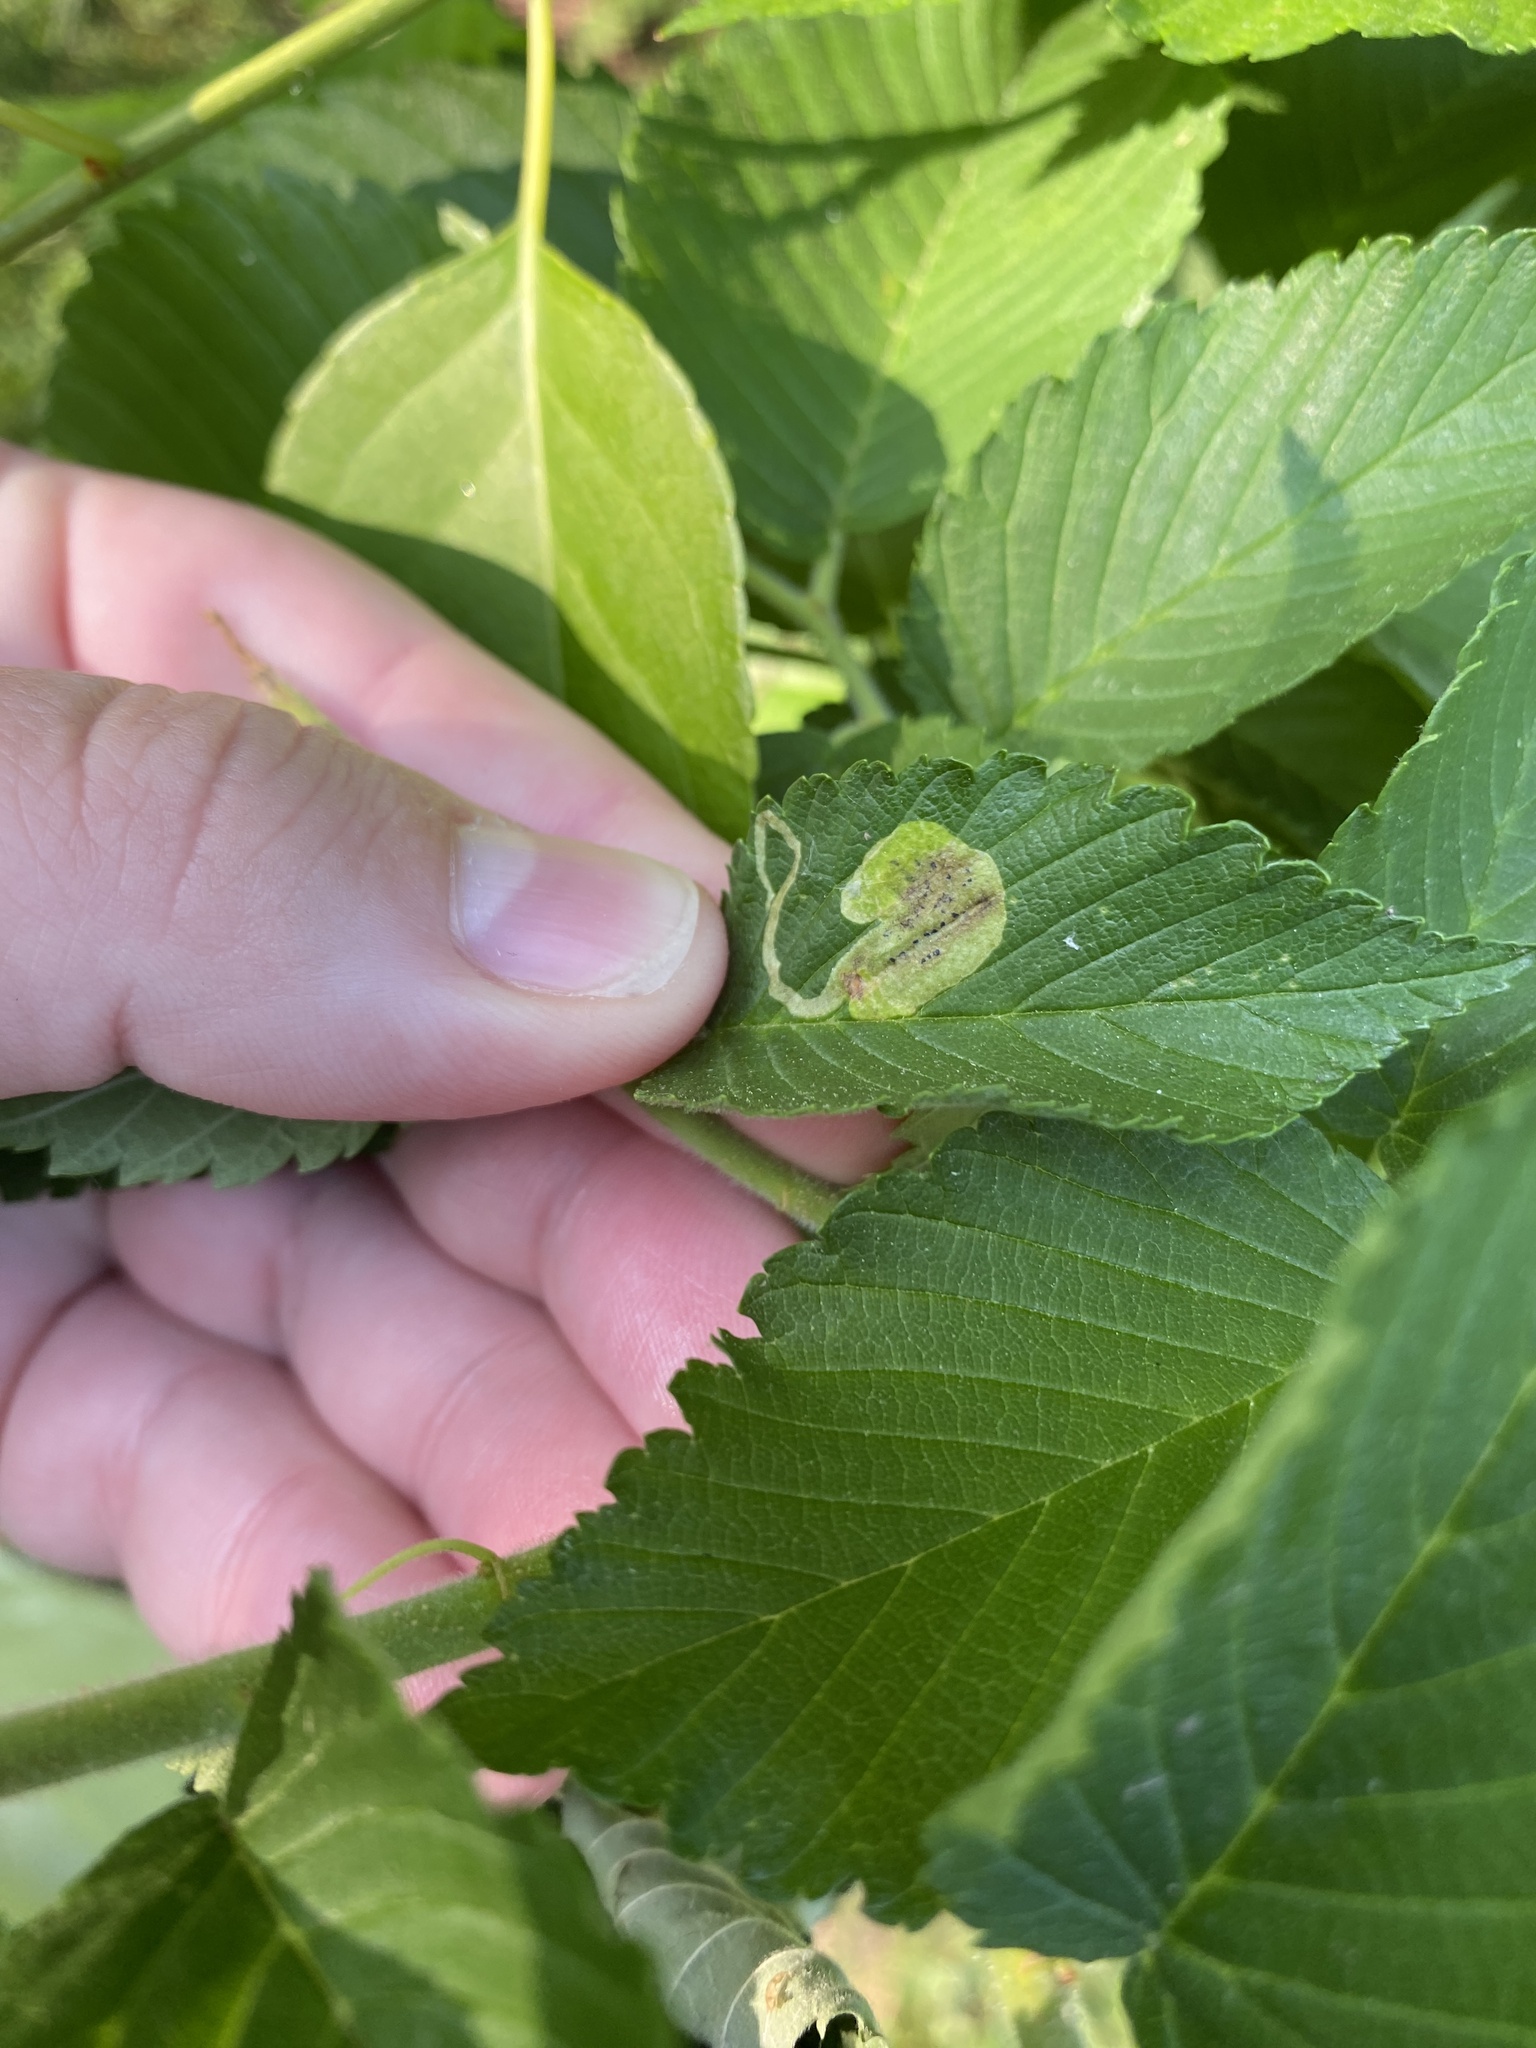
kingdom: Animalia
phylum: Arthropoda
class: Insecta
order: Diptera
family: Agromyzidae
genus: Agromyza
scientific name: Agromyza aristata
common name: Elm agromyzid leafminer
